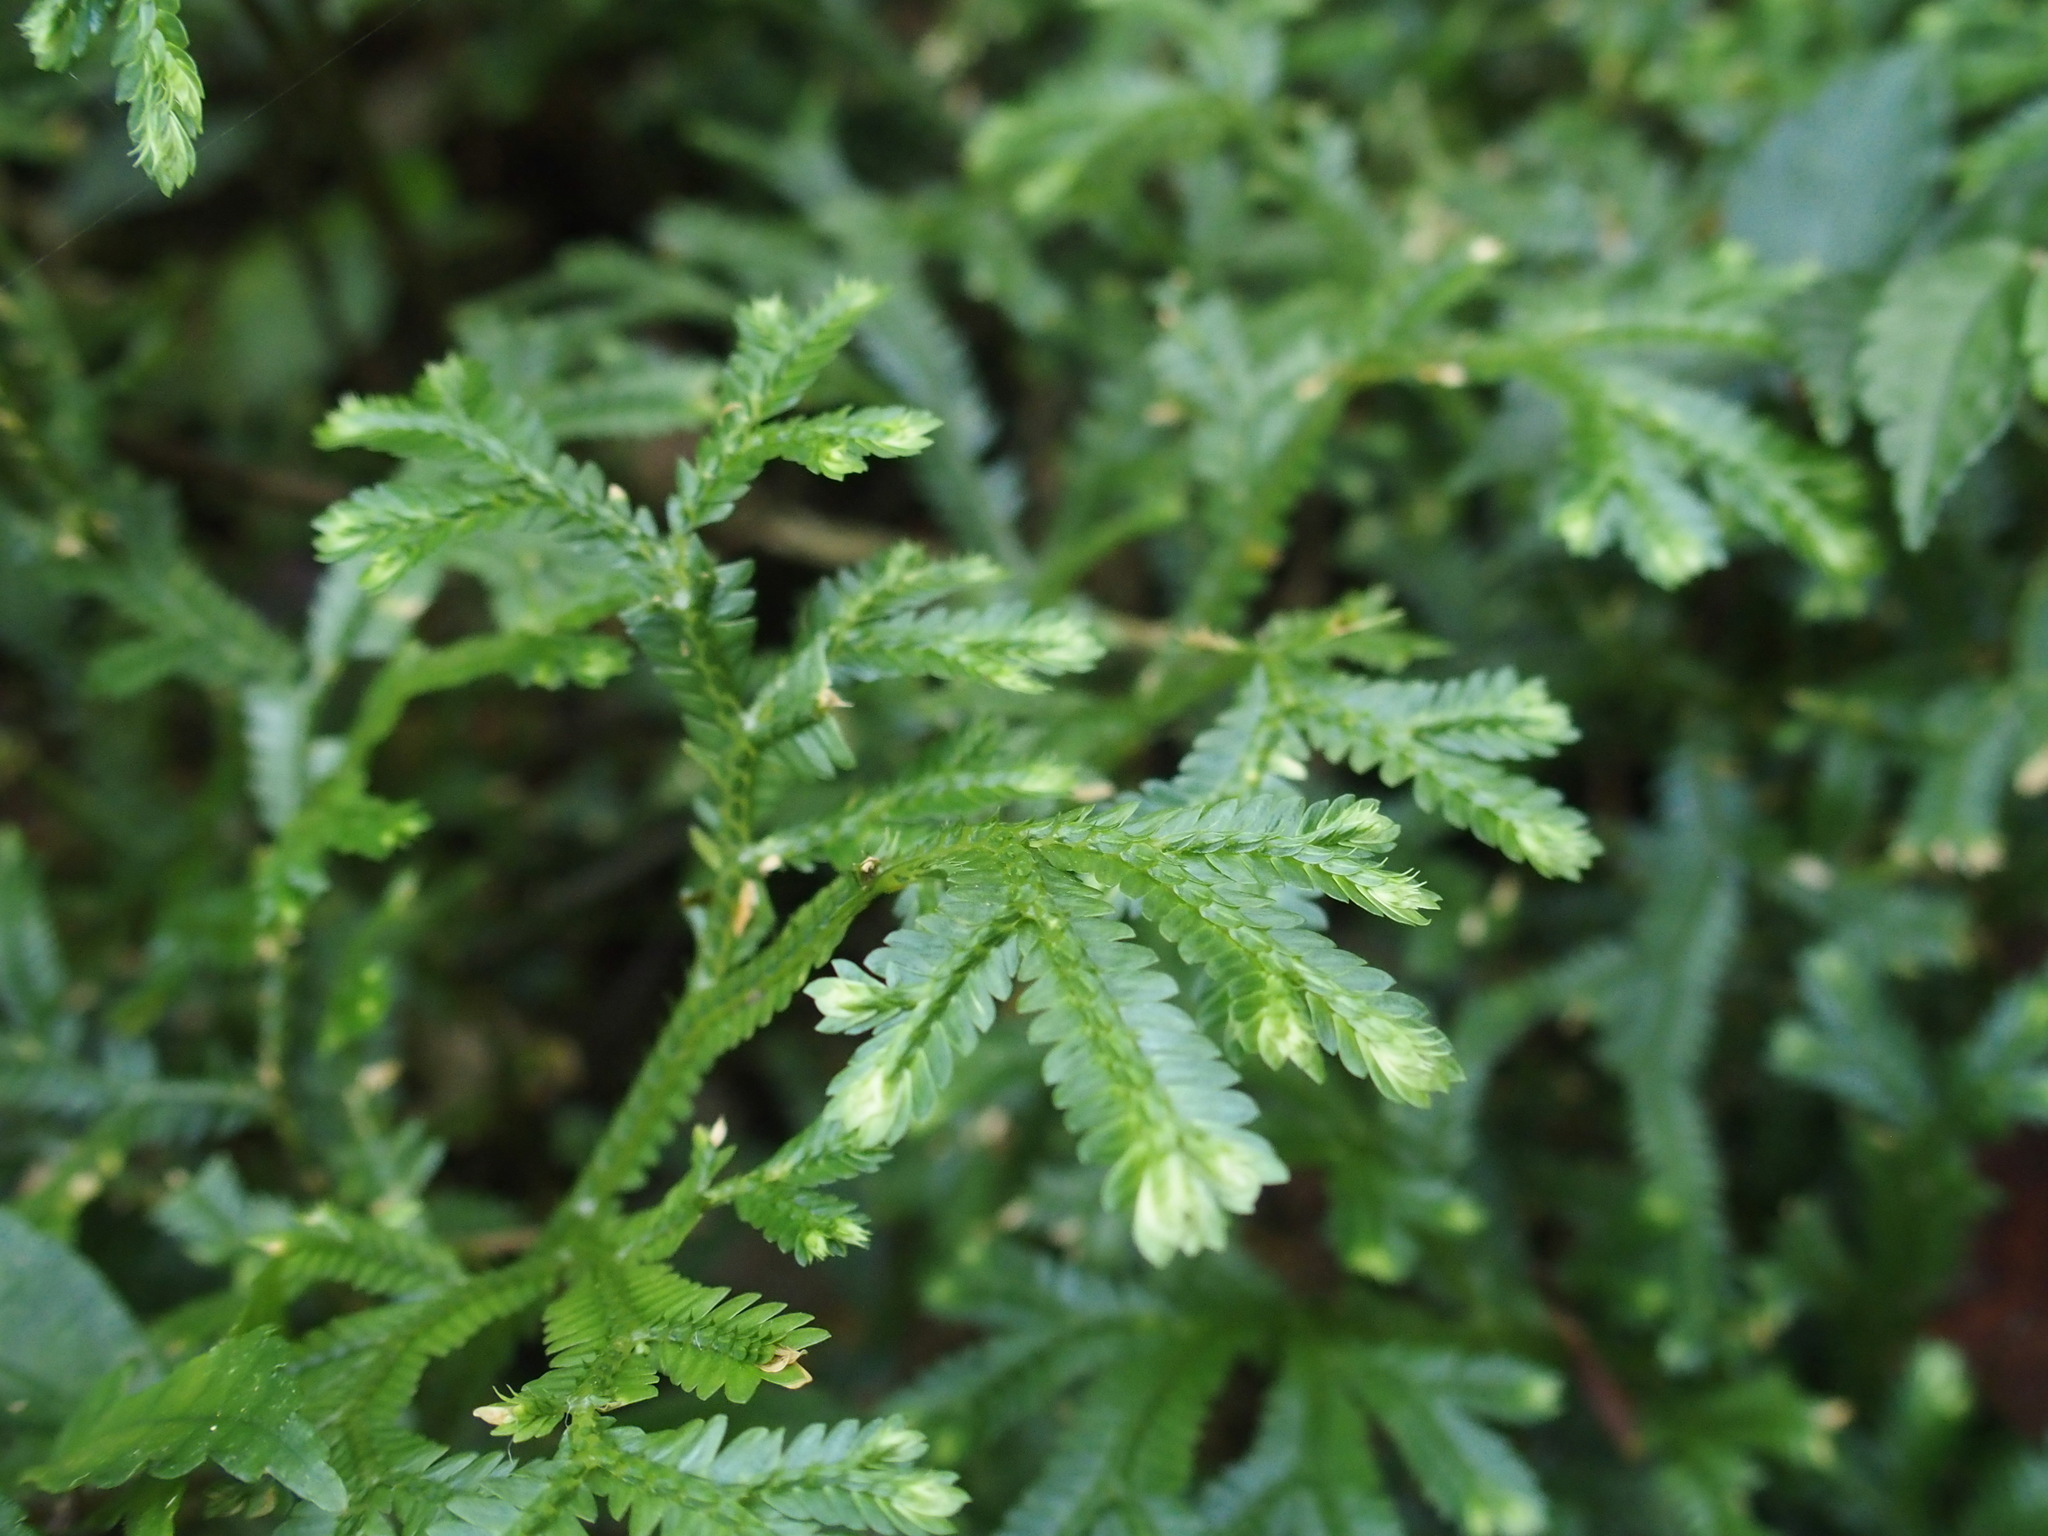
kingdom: Plantae
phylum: Tracheophyta
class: Lycopodiopsida
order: Selaginellales
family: Selaginellaceae
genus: Selaginella
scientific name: Selaginella doederleinii
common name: Greater selaginella
